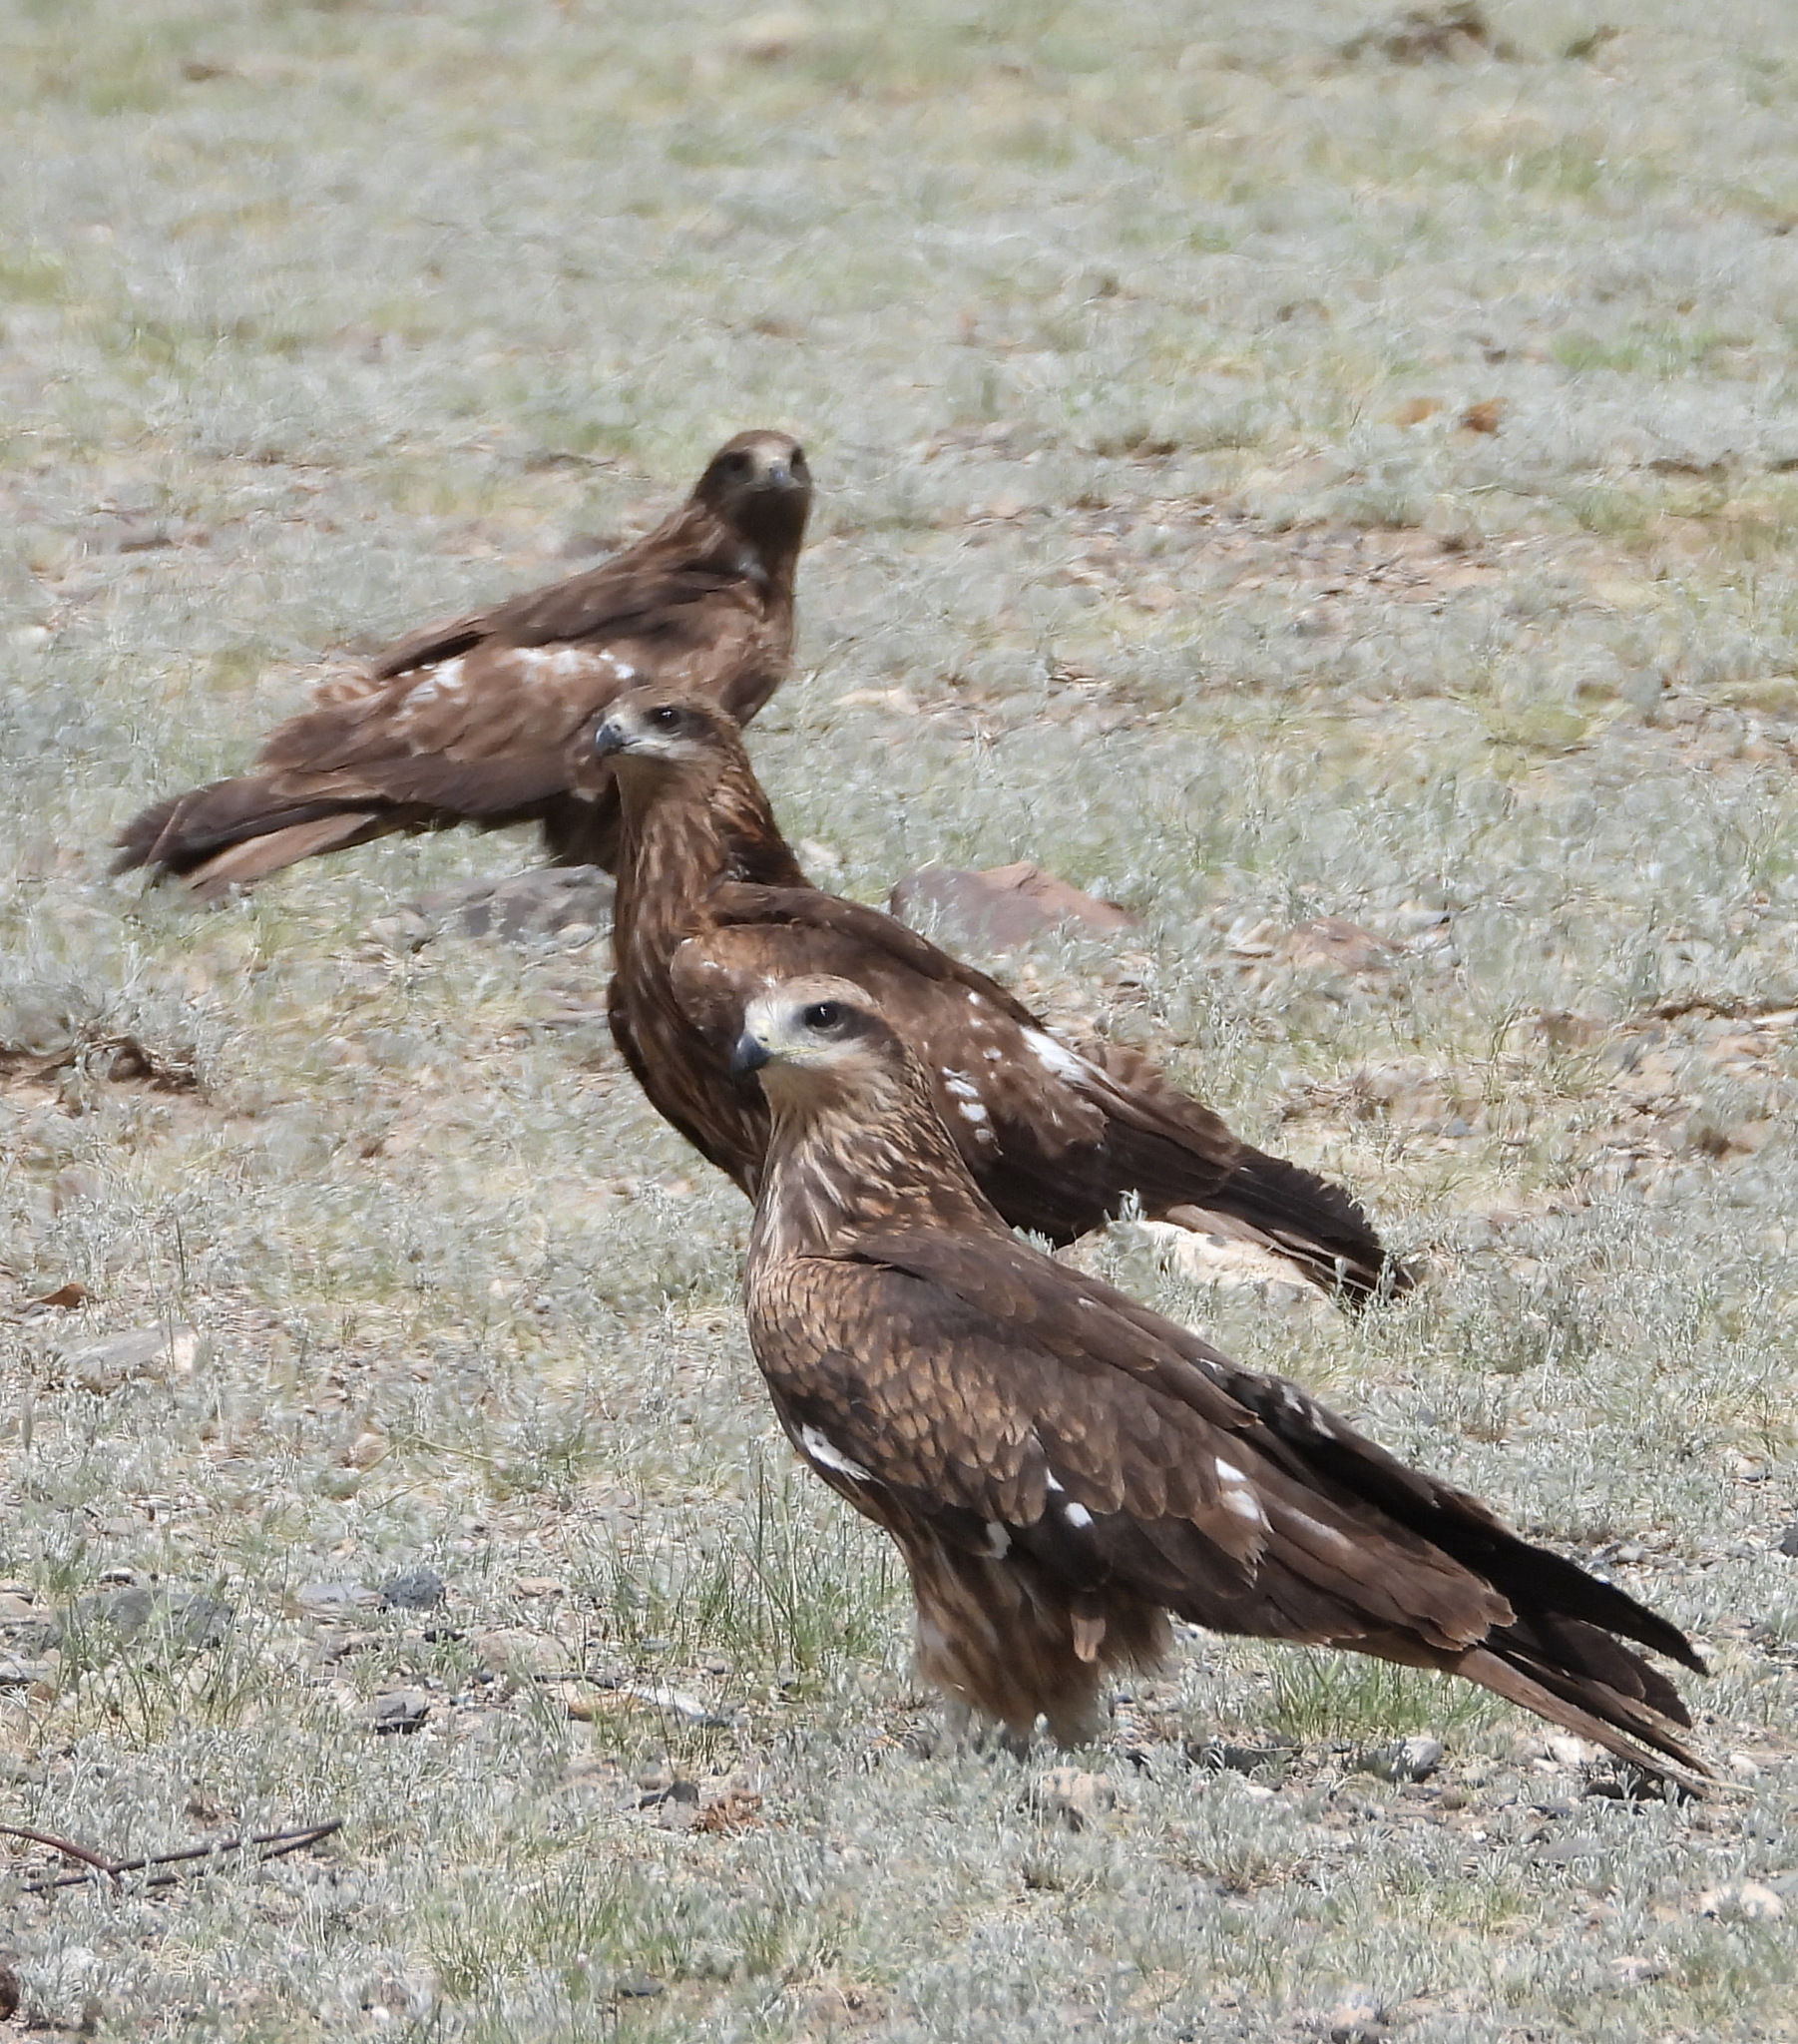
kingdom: Animalia
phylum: Chordata
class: Aves
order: Accipitriformes
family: Accipitridae
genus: Milvus
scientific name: Milvus migrans
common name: Black kite
